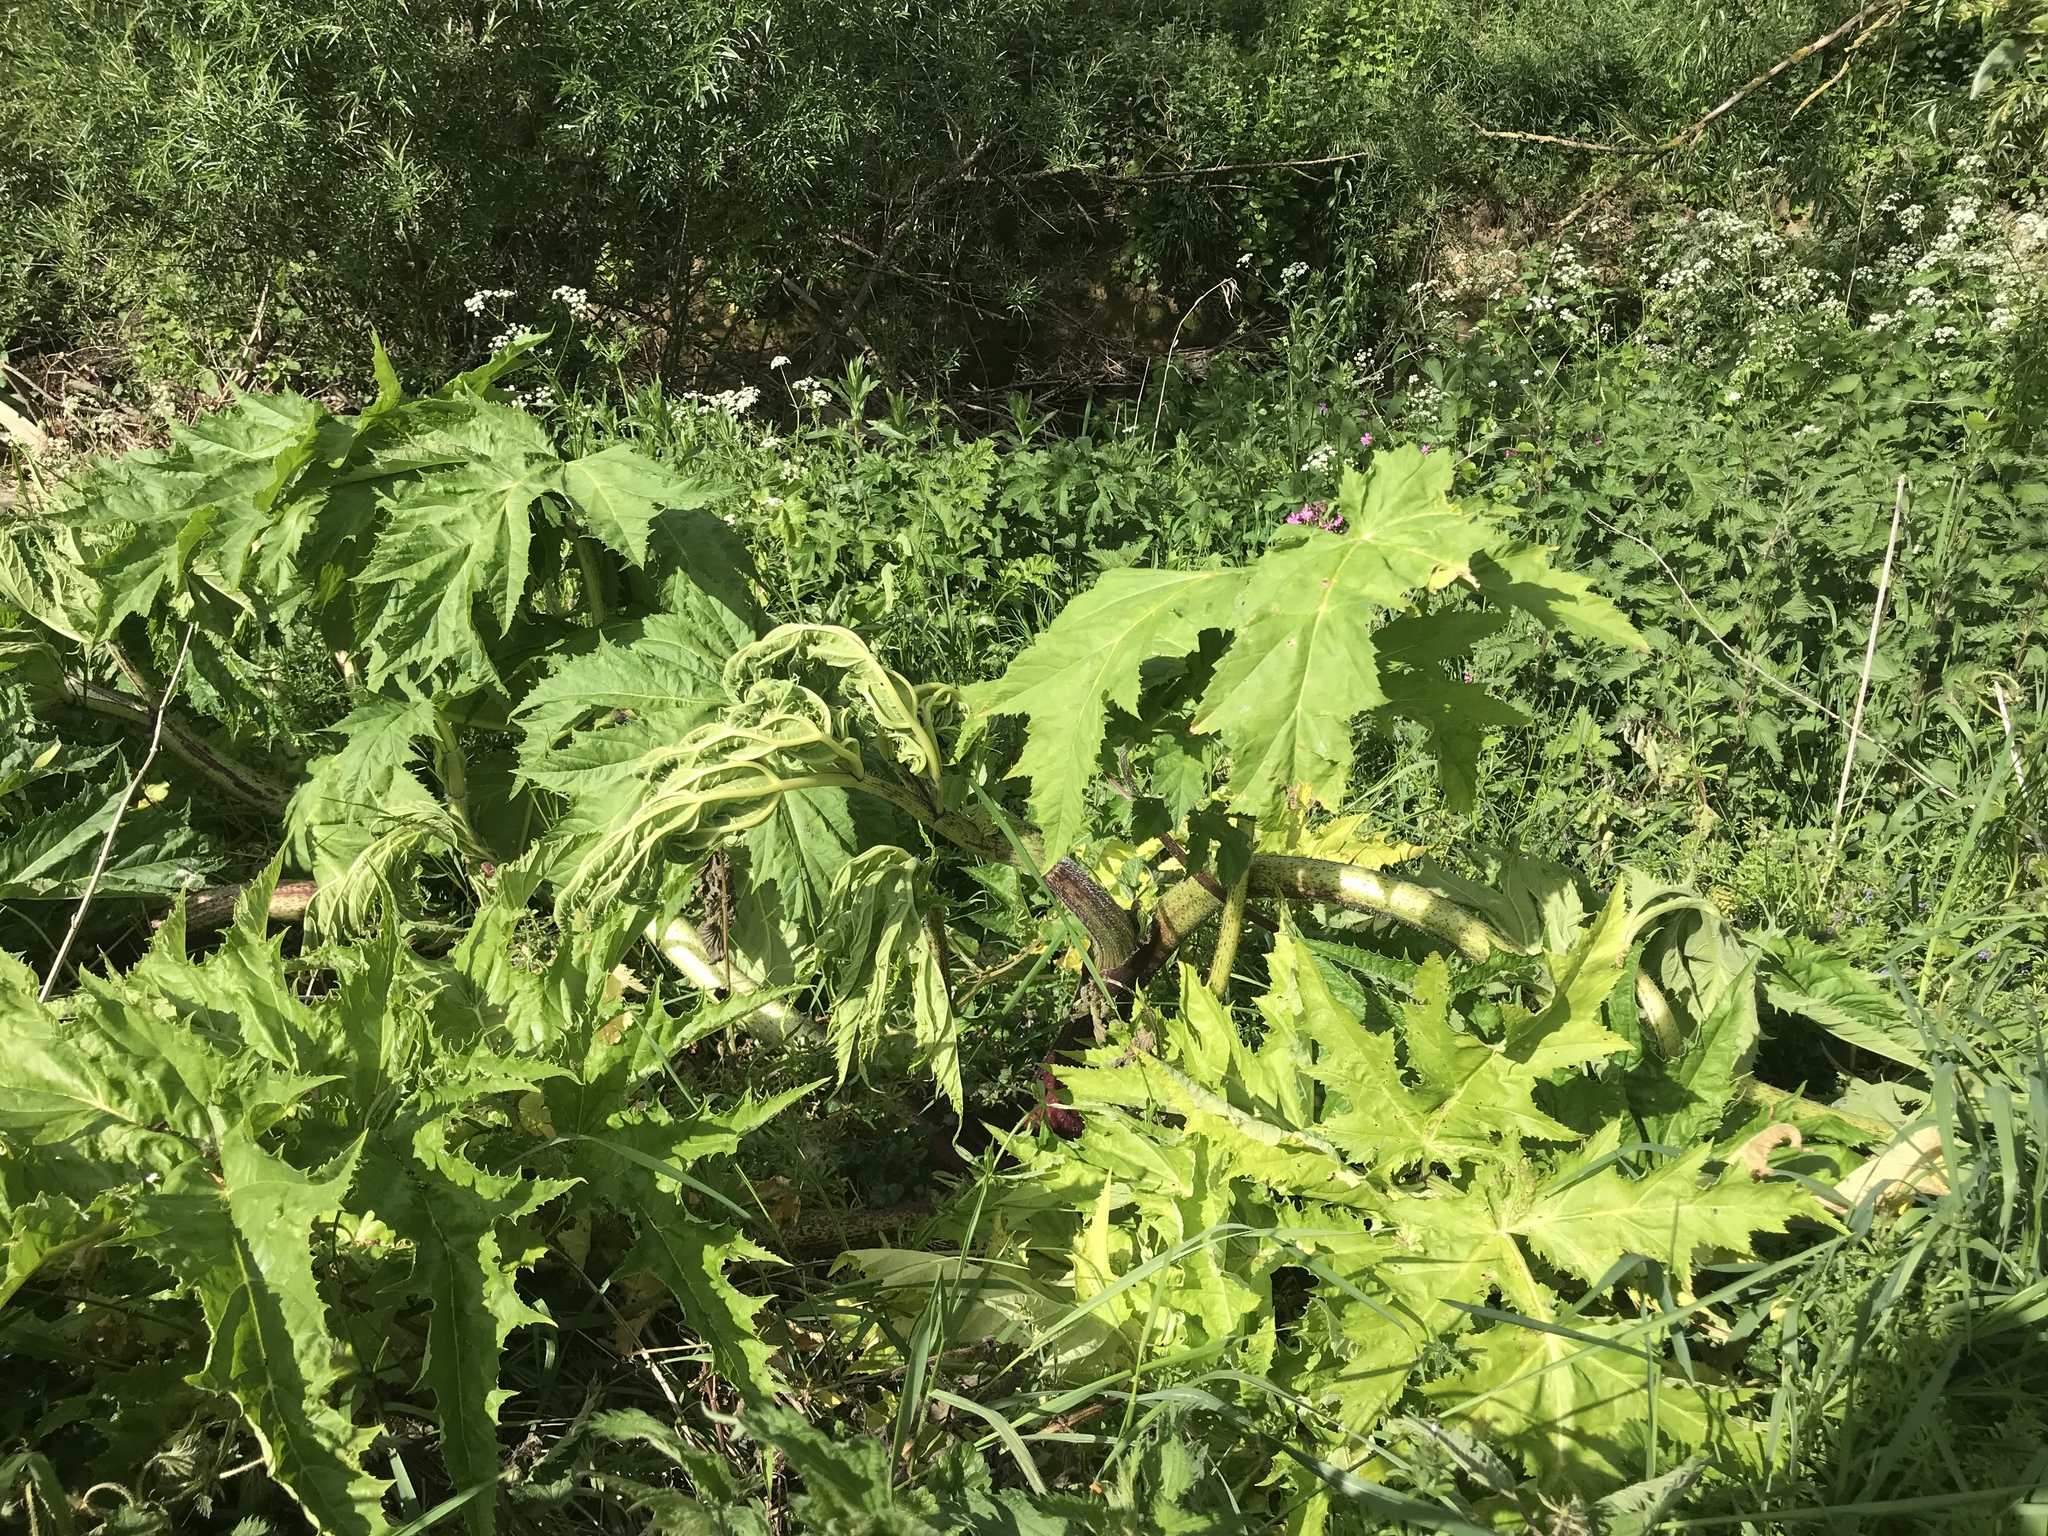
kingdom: Plantae
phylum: Tracheophyta
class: Magnoliopsida
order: Apiales
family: Apiaceae
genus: Heracleum
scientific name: Heracleum mantegazzianum
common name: Giant hogweed
